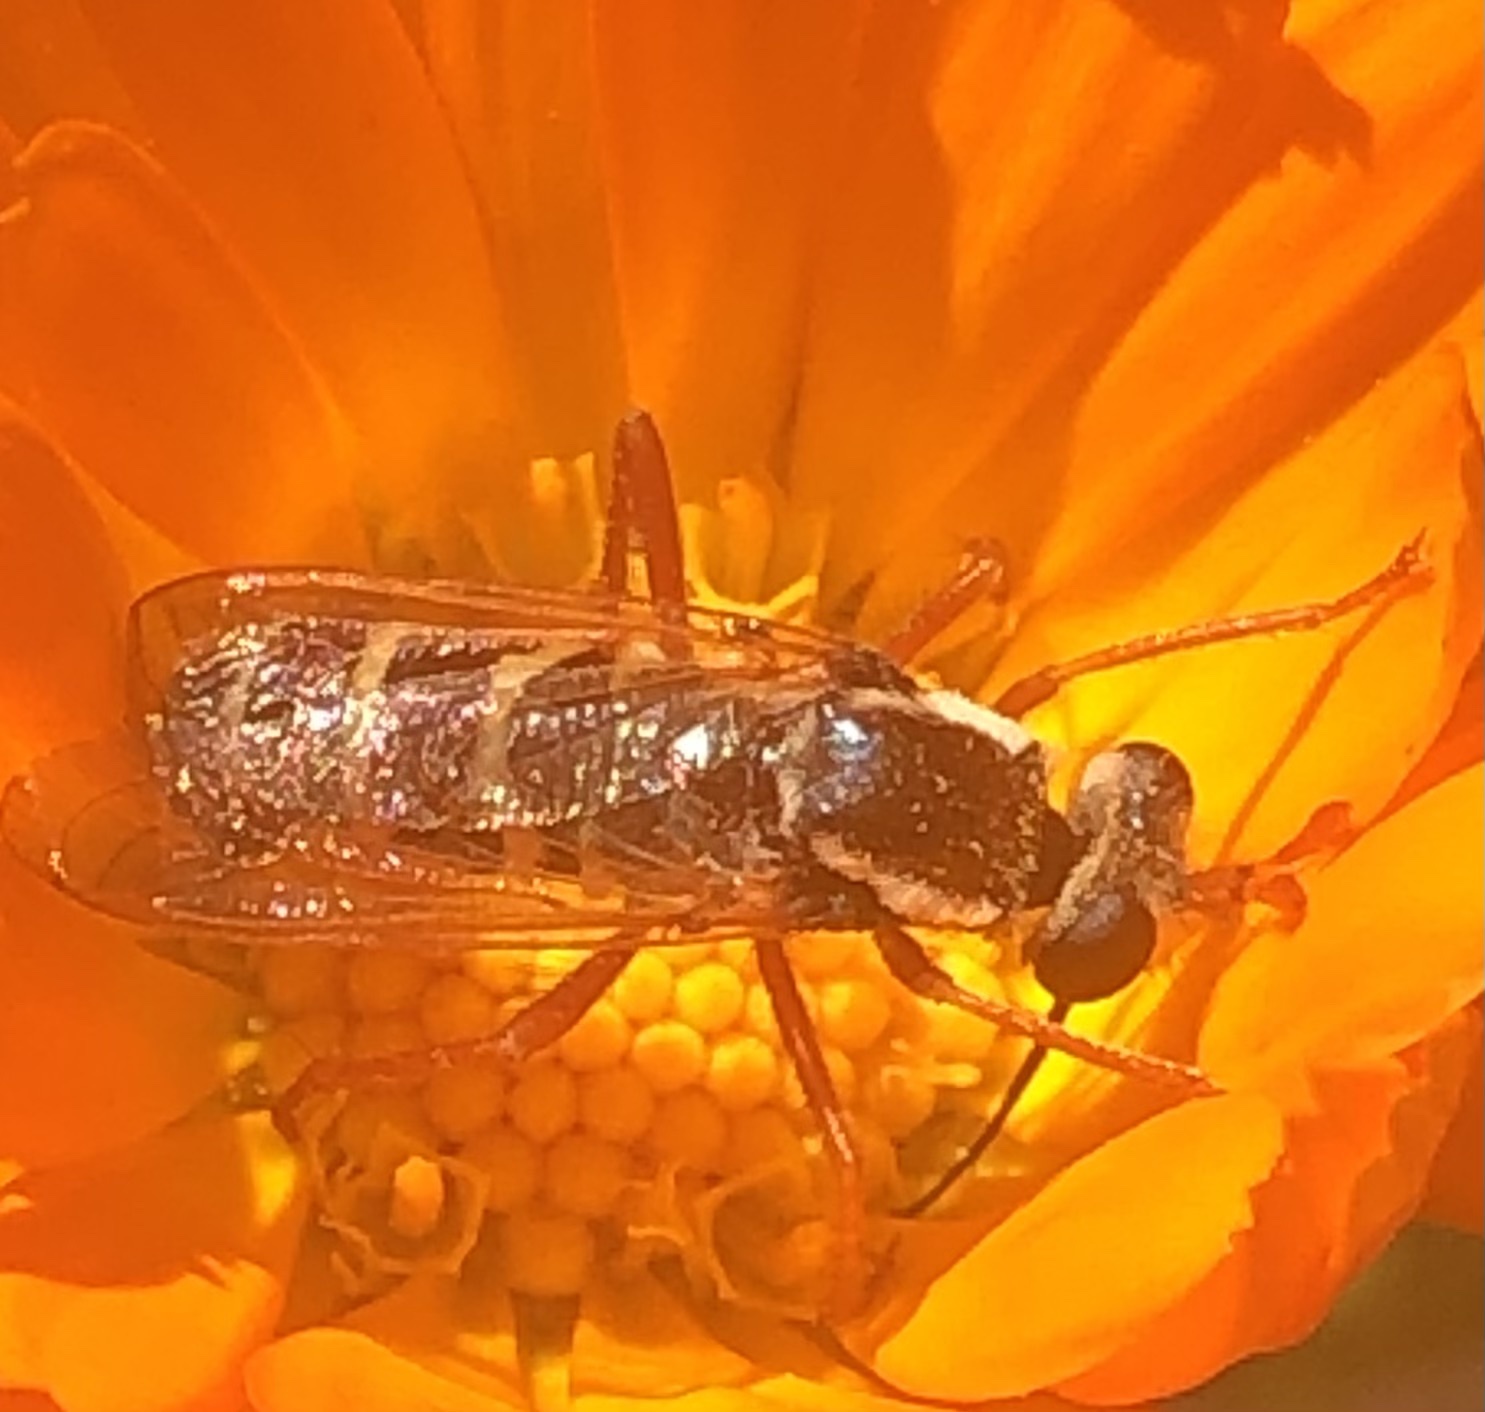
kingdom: Animalia
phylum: Arthropoda
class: Insecta
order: Diptera
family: Mydidae
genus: Mitrodetus
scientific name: Mitrodetus dentitarsis
